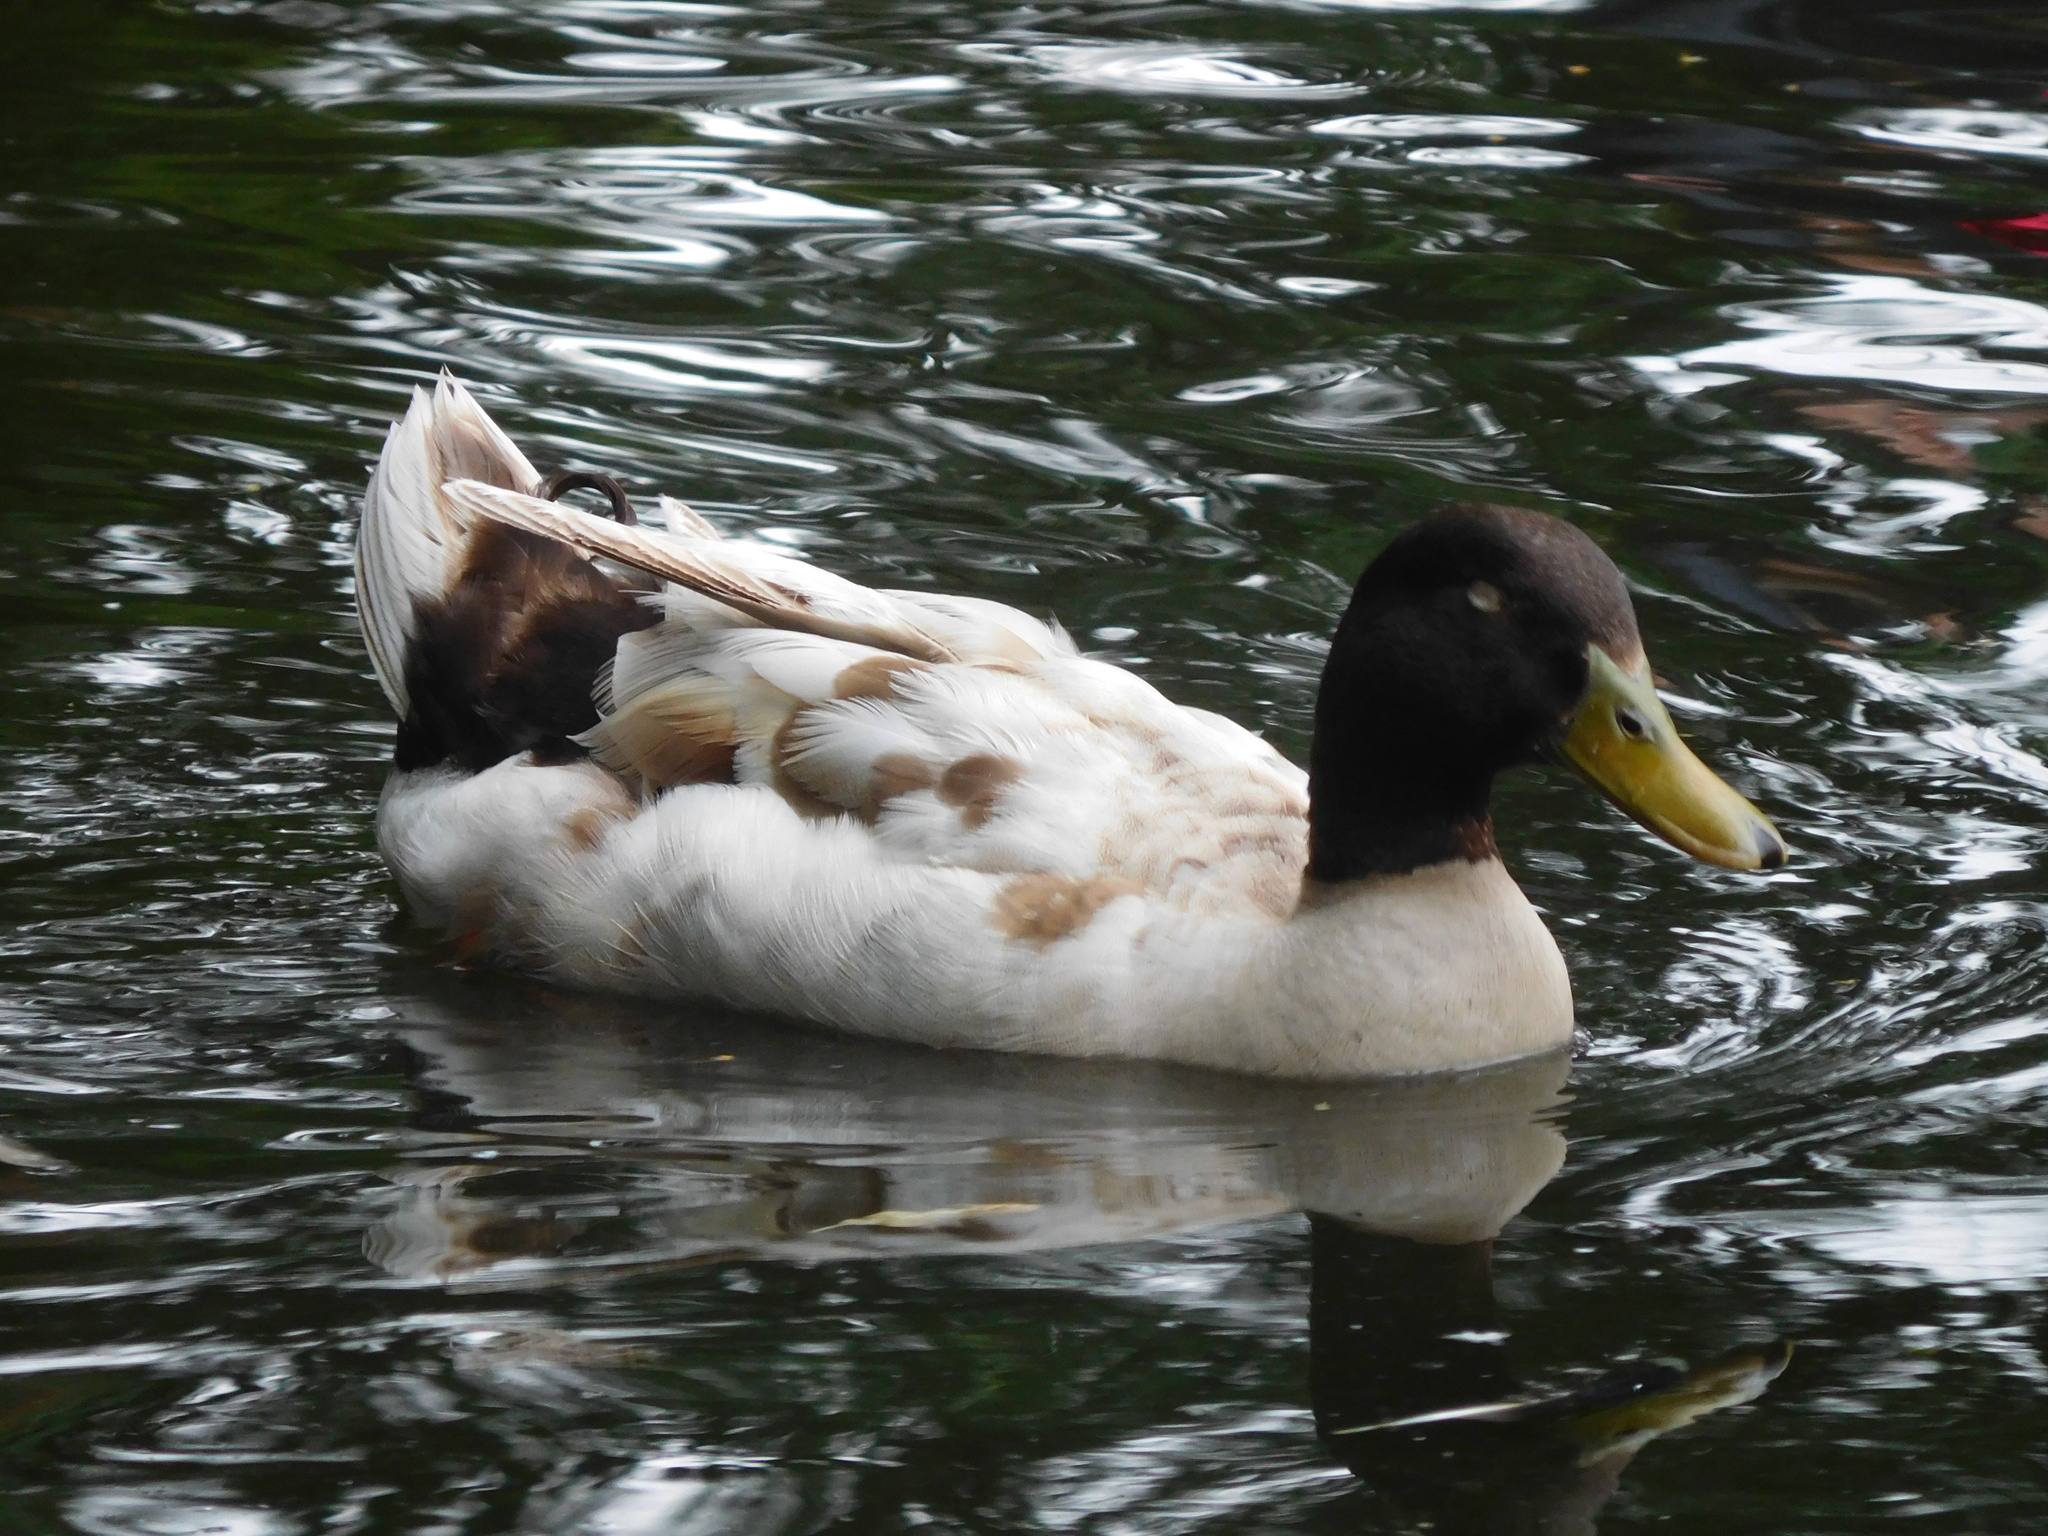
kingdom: Animalia
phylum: Chordata
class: Aves
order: Anseriformes
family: Anatidae
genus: Anas
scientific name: Anas platyrhynchos
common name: Mallard
